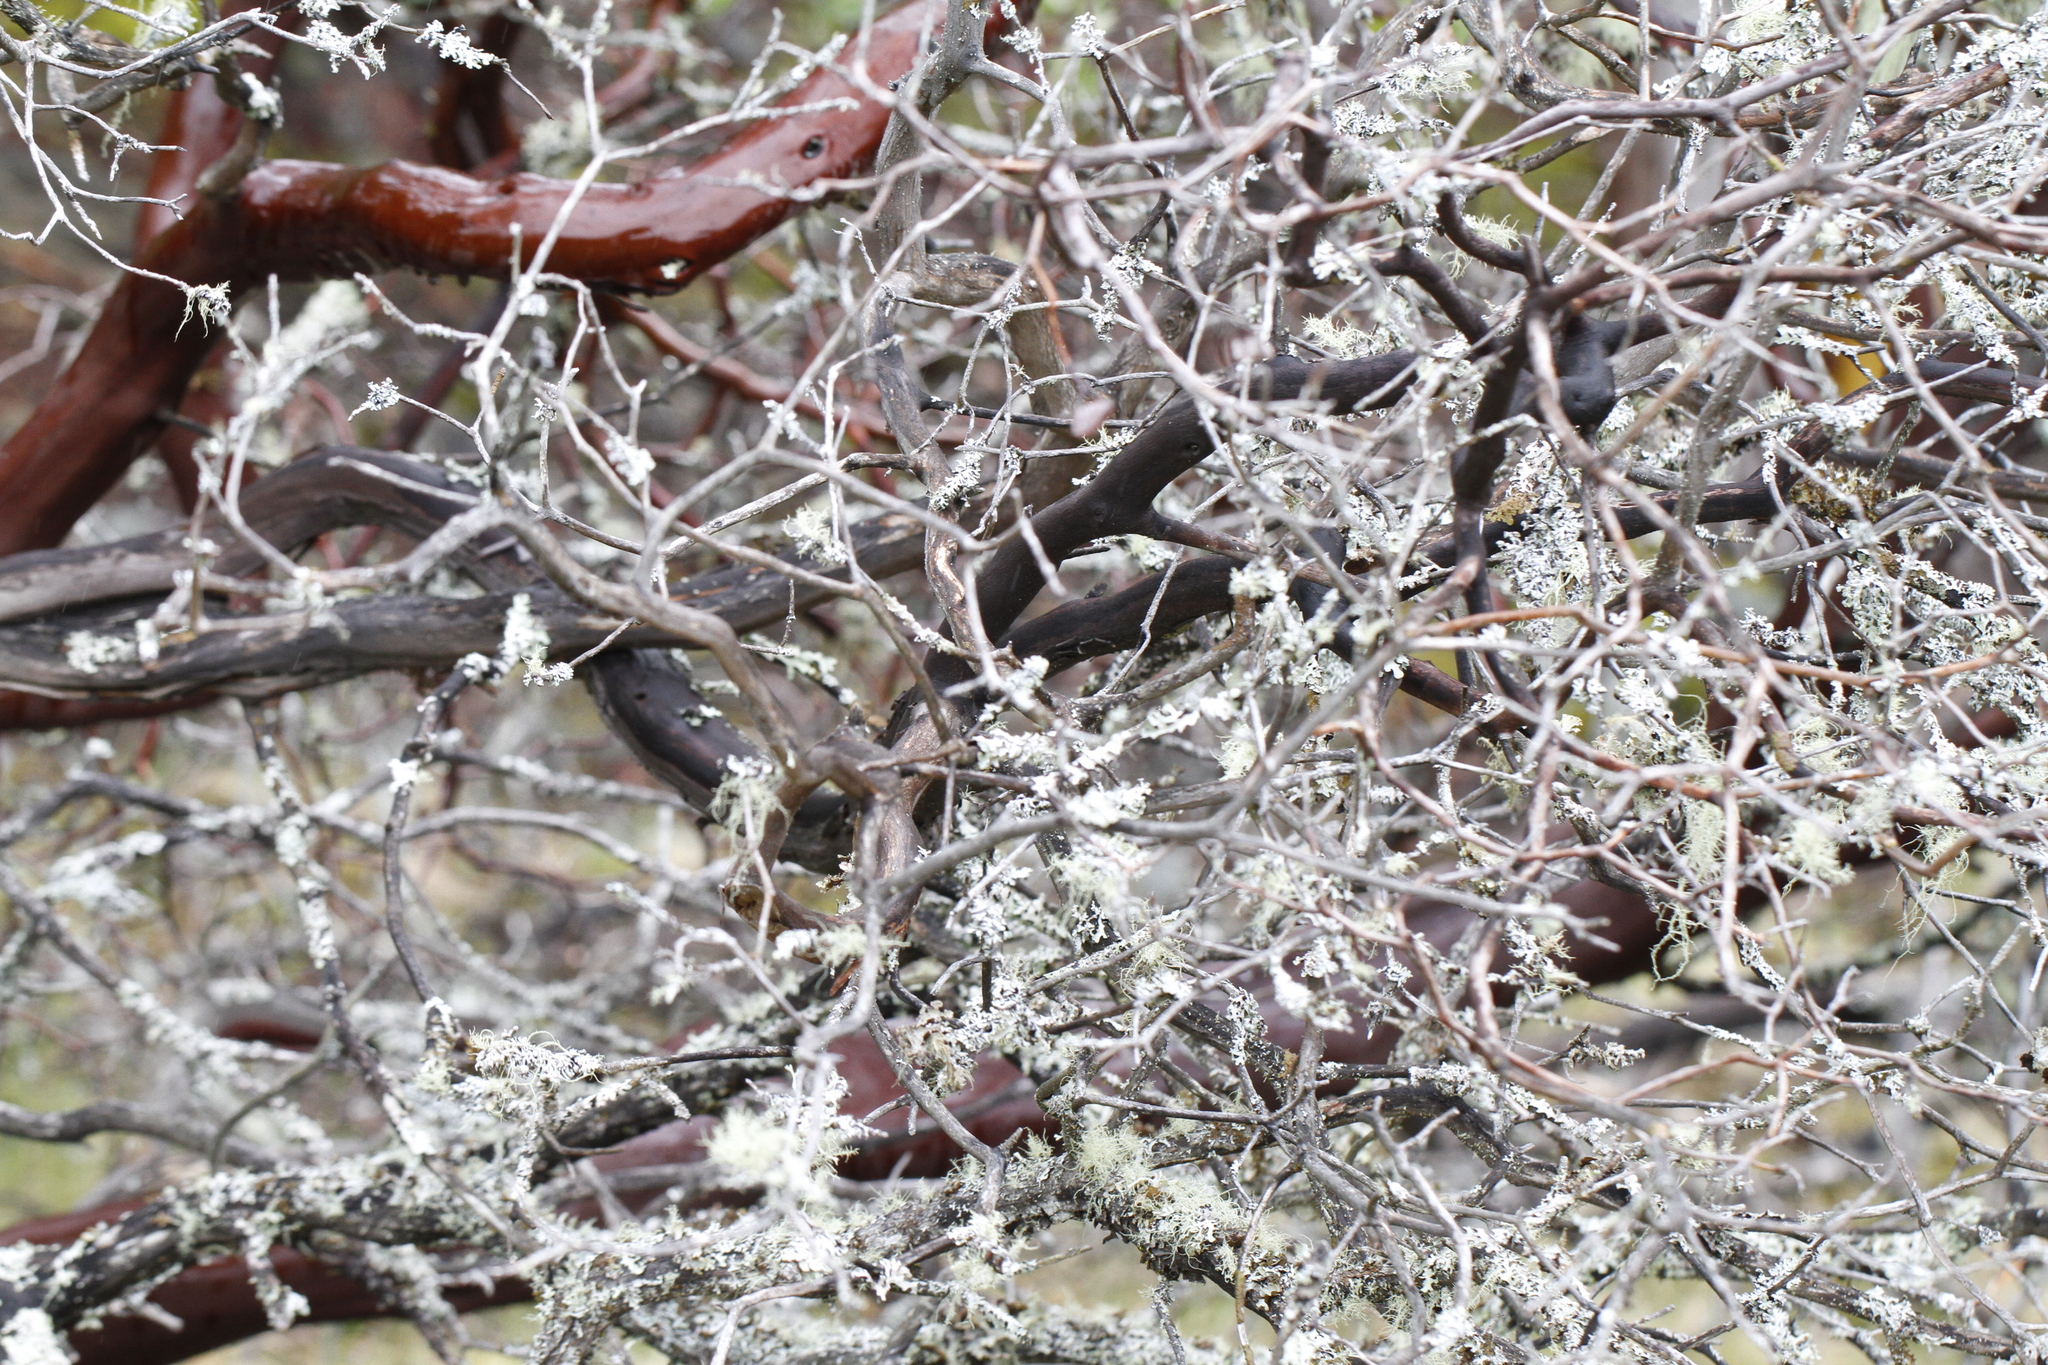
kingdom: Plantae
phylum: Tracheophyta
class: Magnoliopsida
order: Ericales
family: Ericaceae
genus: Arctostaphylos
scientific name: Arctostaphylos columbiana
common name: Bristly bearberry
